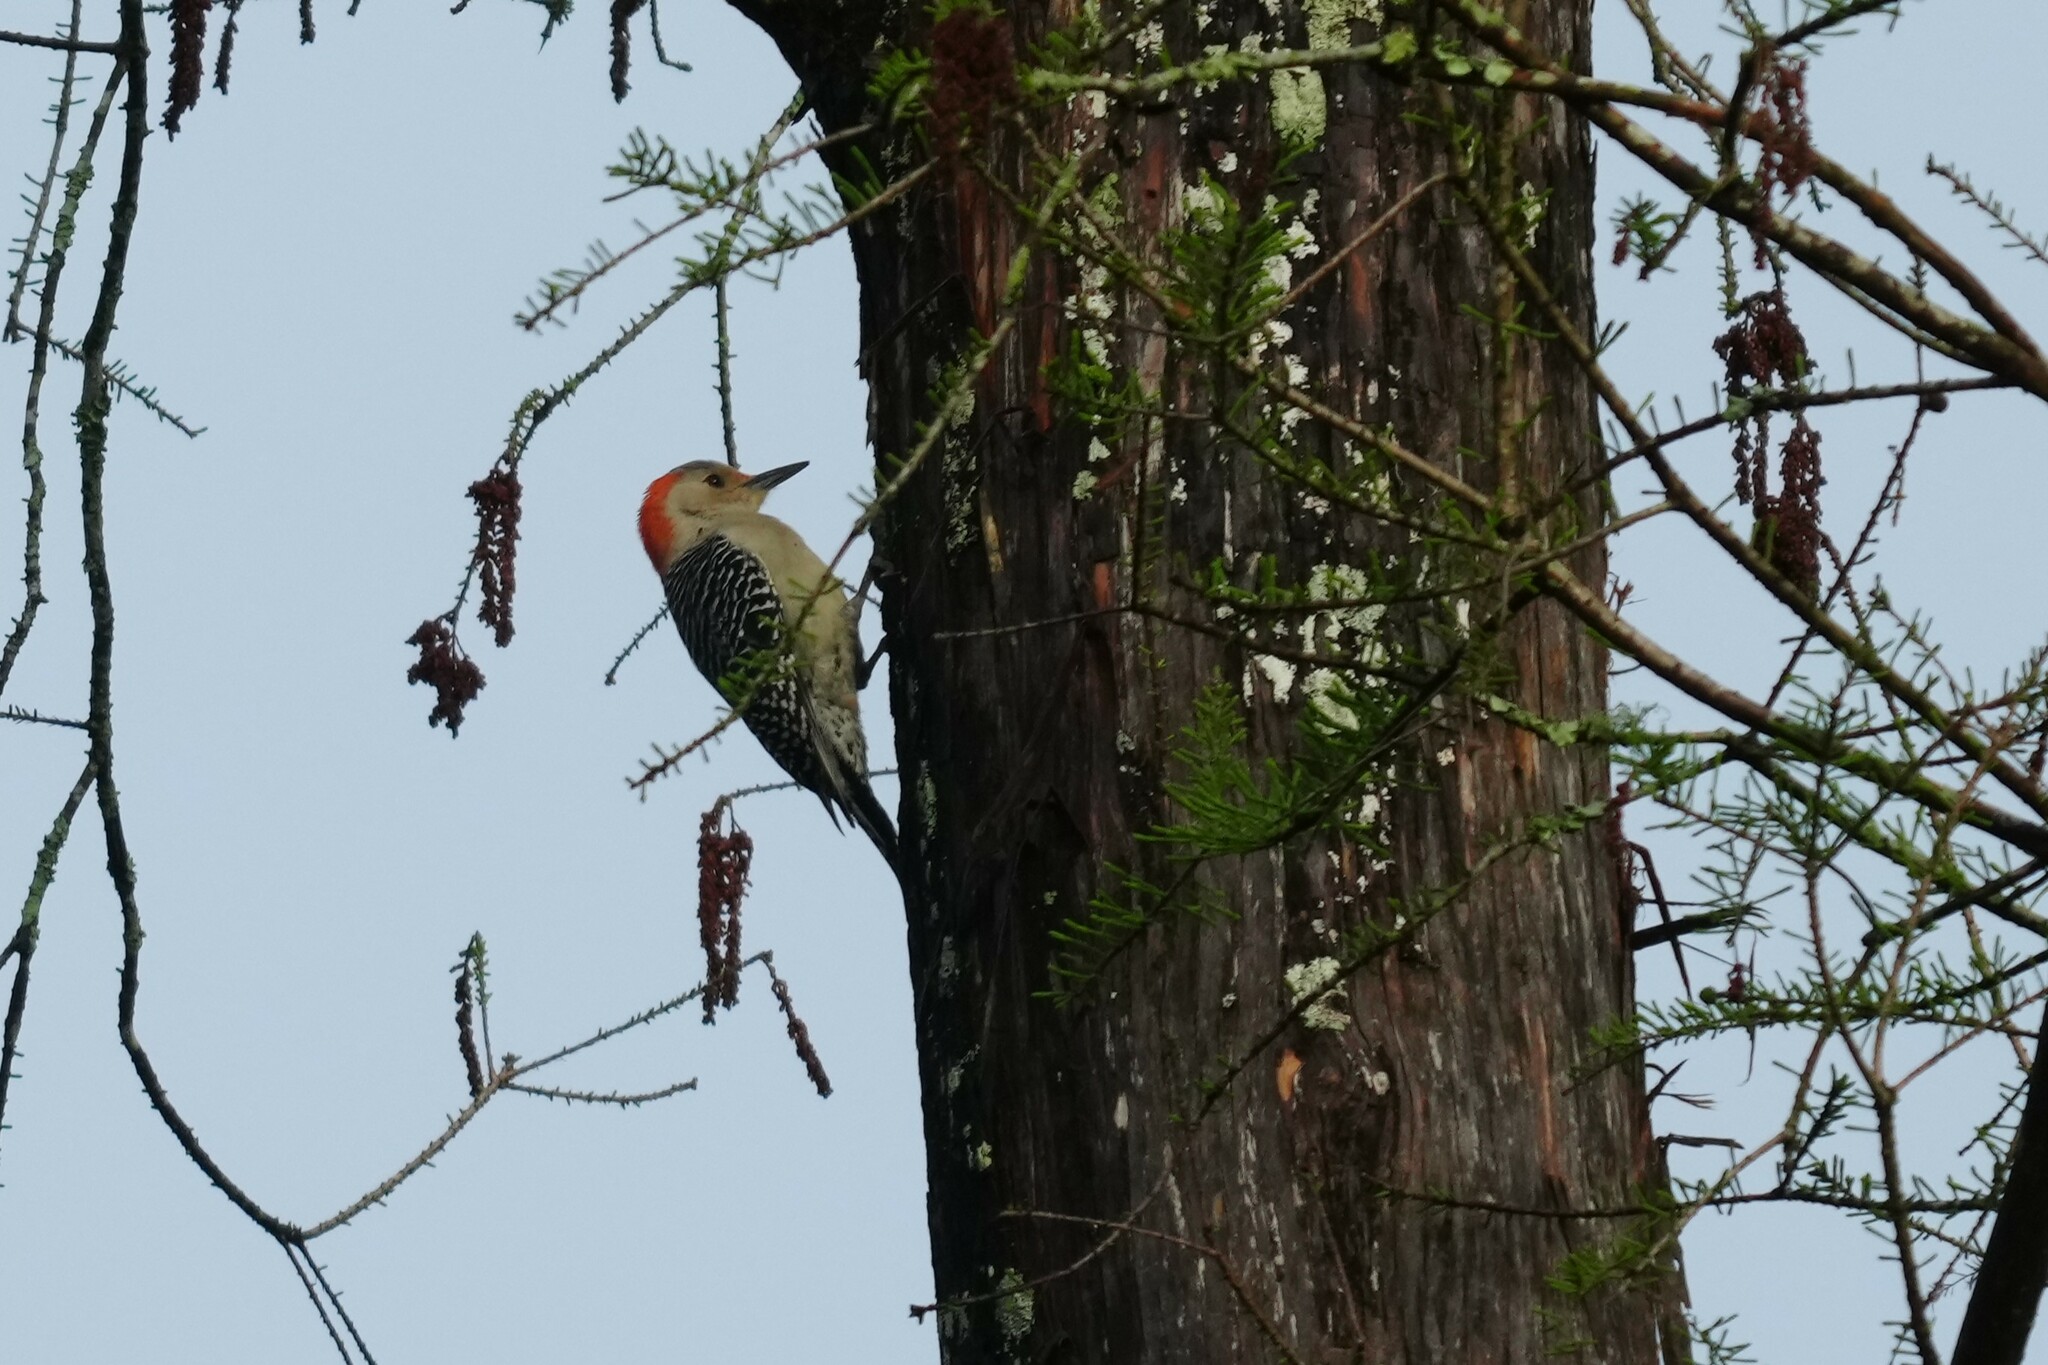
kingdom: Animalia
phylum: Chordata
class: Aves
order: Piciformes
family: Picidae
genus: Melanerpes
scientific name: Melanerpes carolinus
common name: Red-bellied woodpecker
